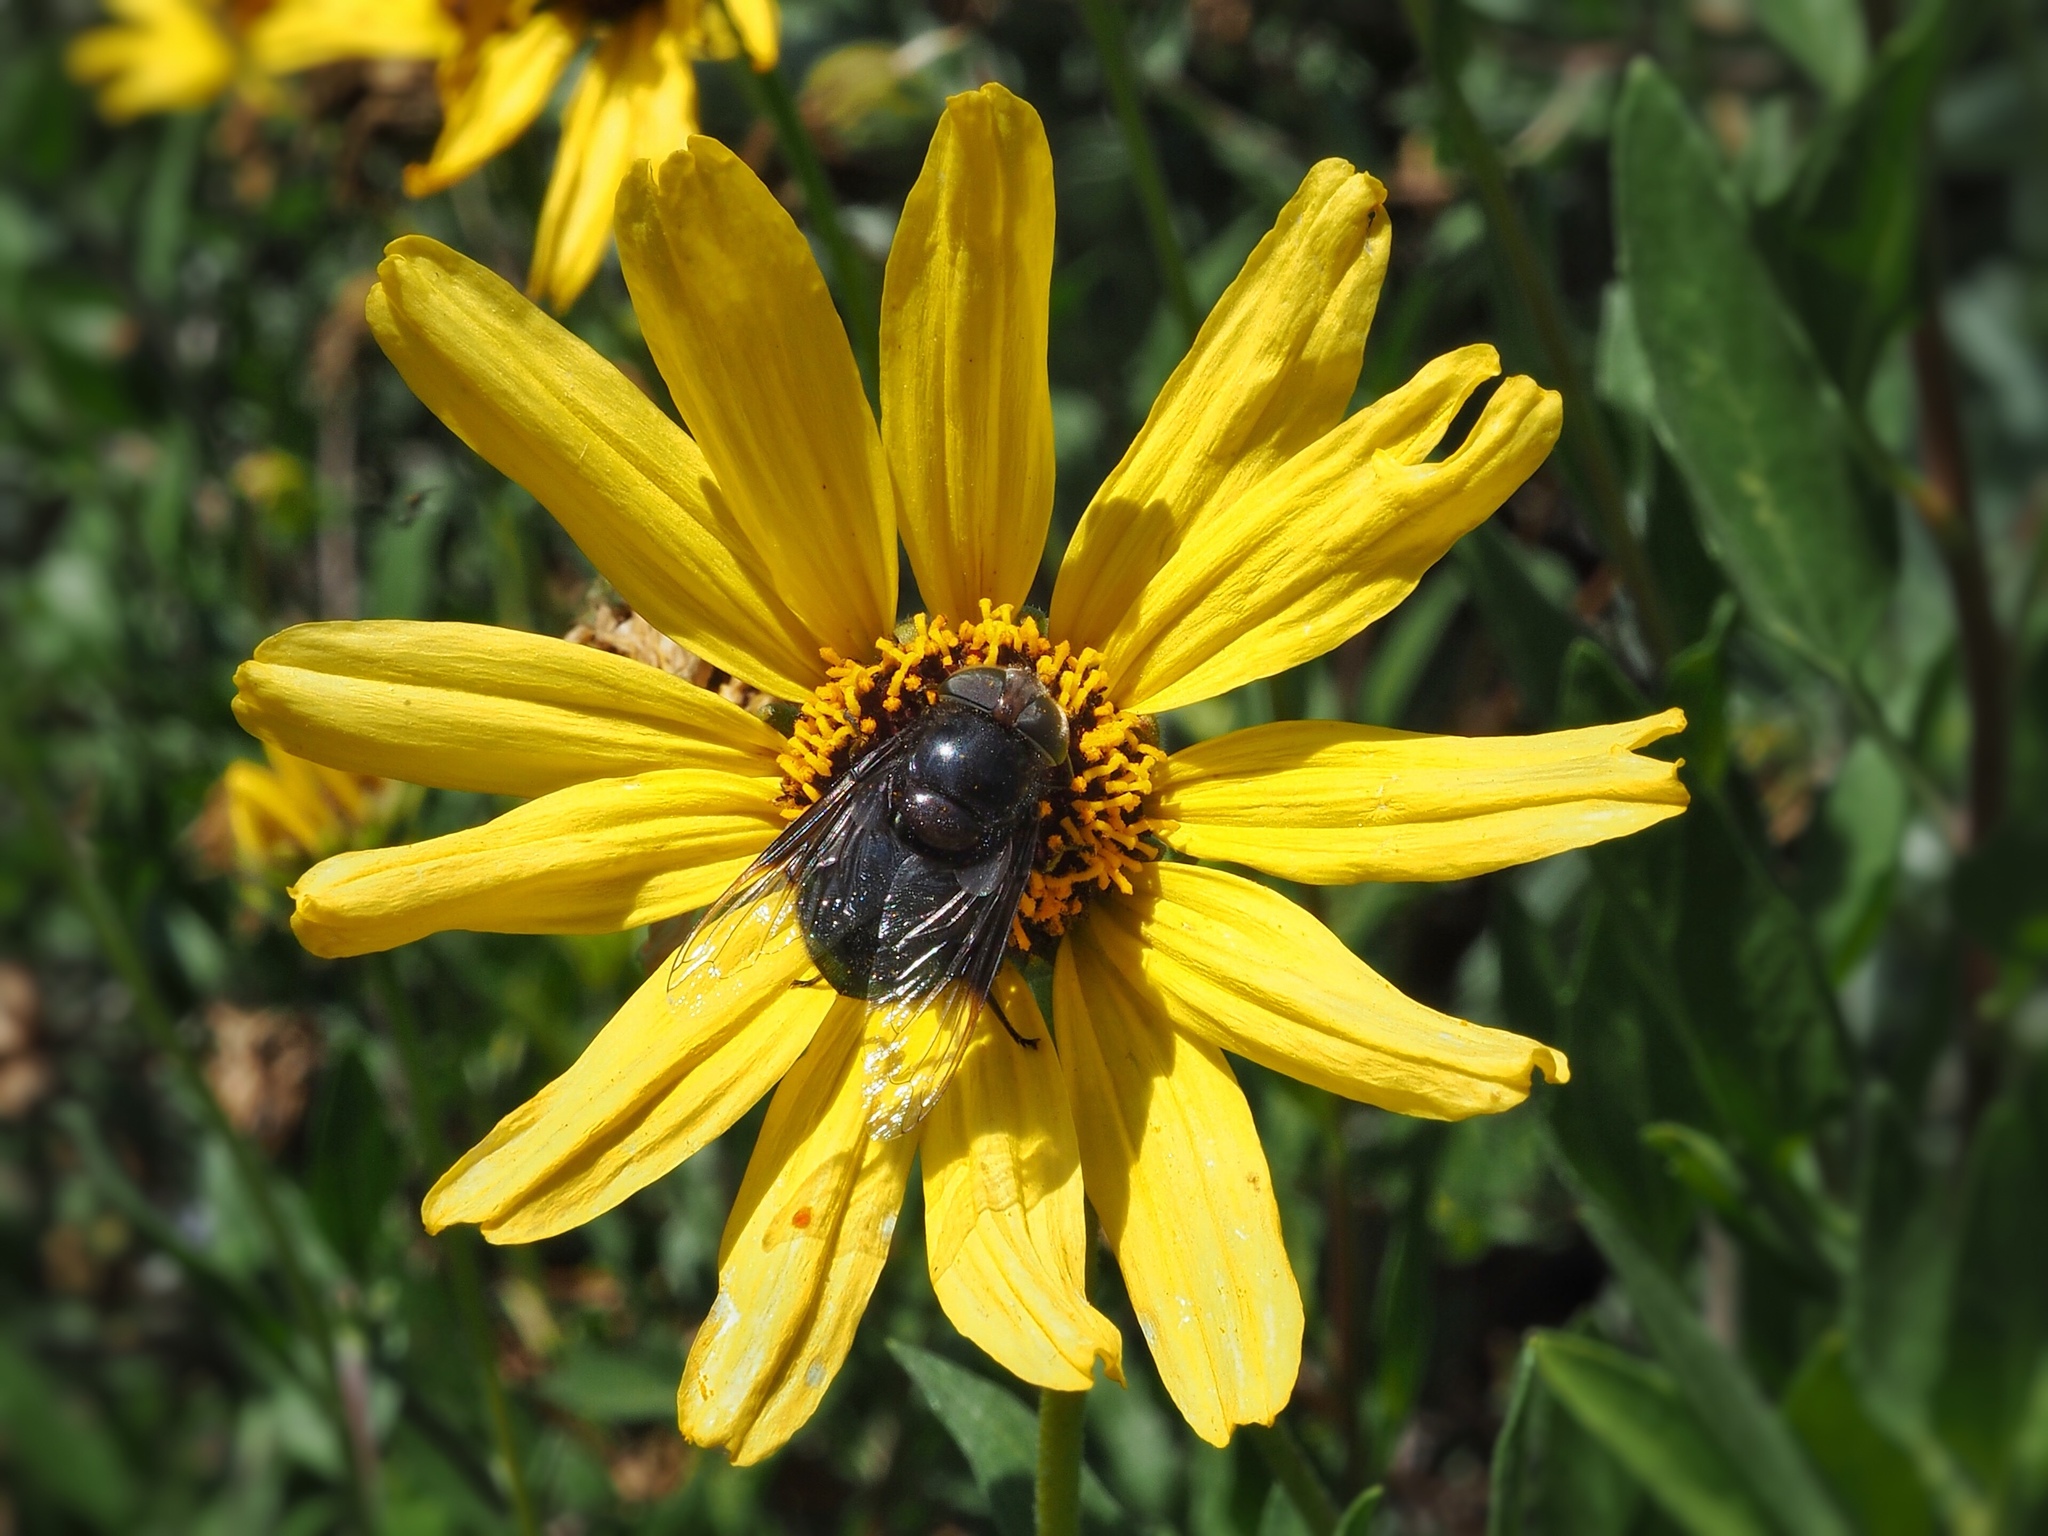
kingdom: Animalia
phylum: Arthropoda
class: Insecta
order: Diptera
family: Syrphidae
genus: Copestylum
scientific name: Copestylum mexicanum
